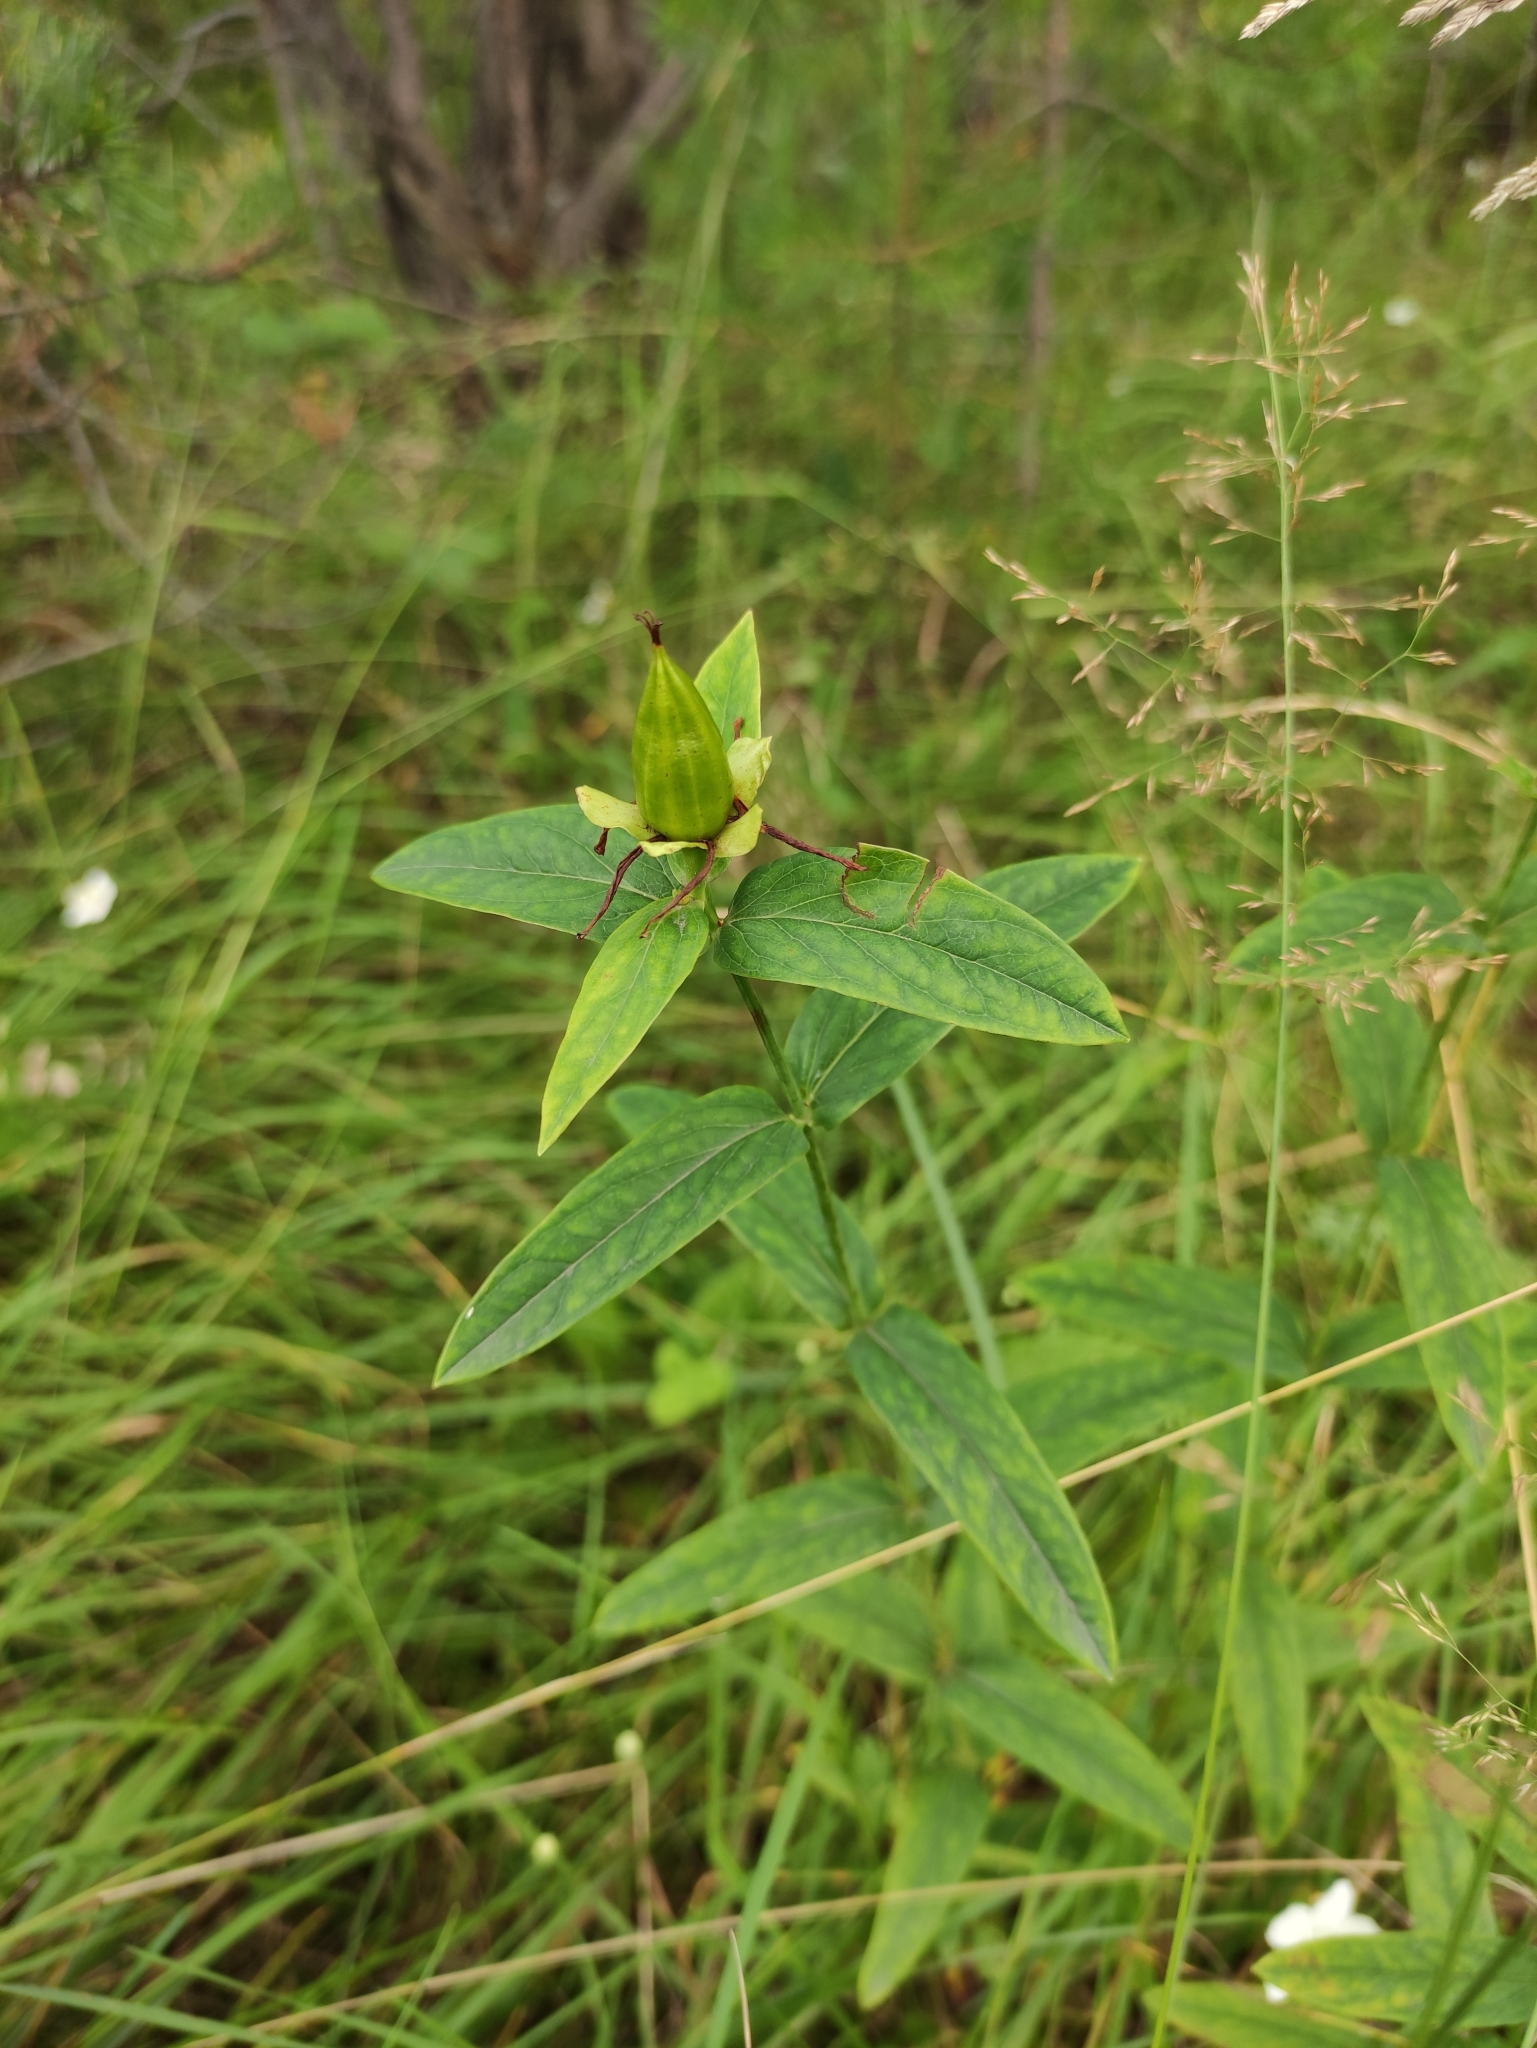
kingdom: Plantae
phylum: Tracheophyta
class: Magnoliopsida
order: Malpighiales
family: Hypericaceae
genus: Hypericum
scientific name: Hypericum ascyron
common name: Giant st. john's-wort
